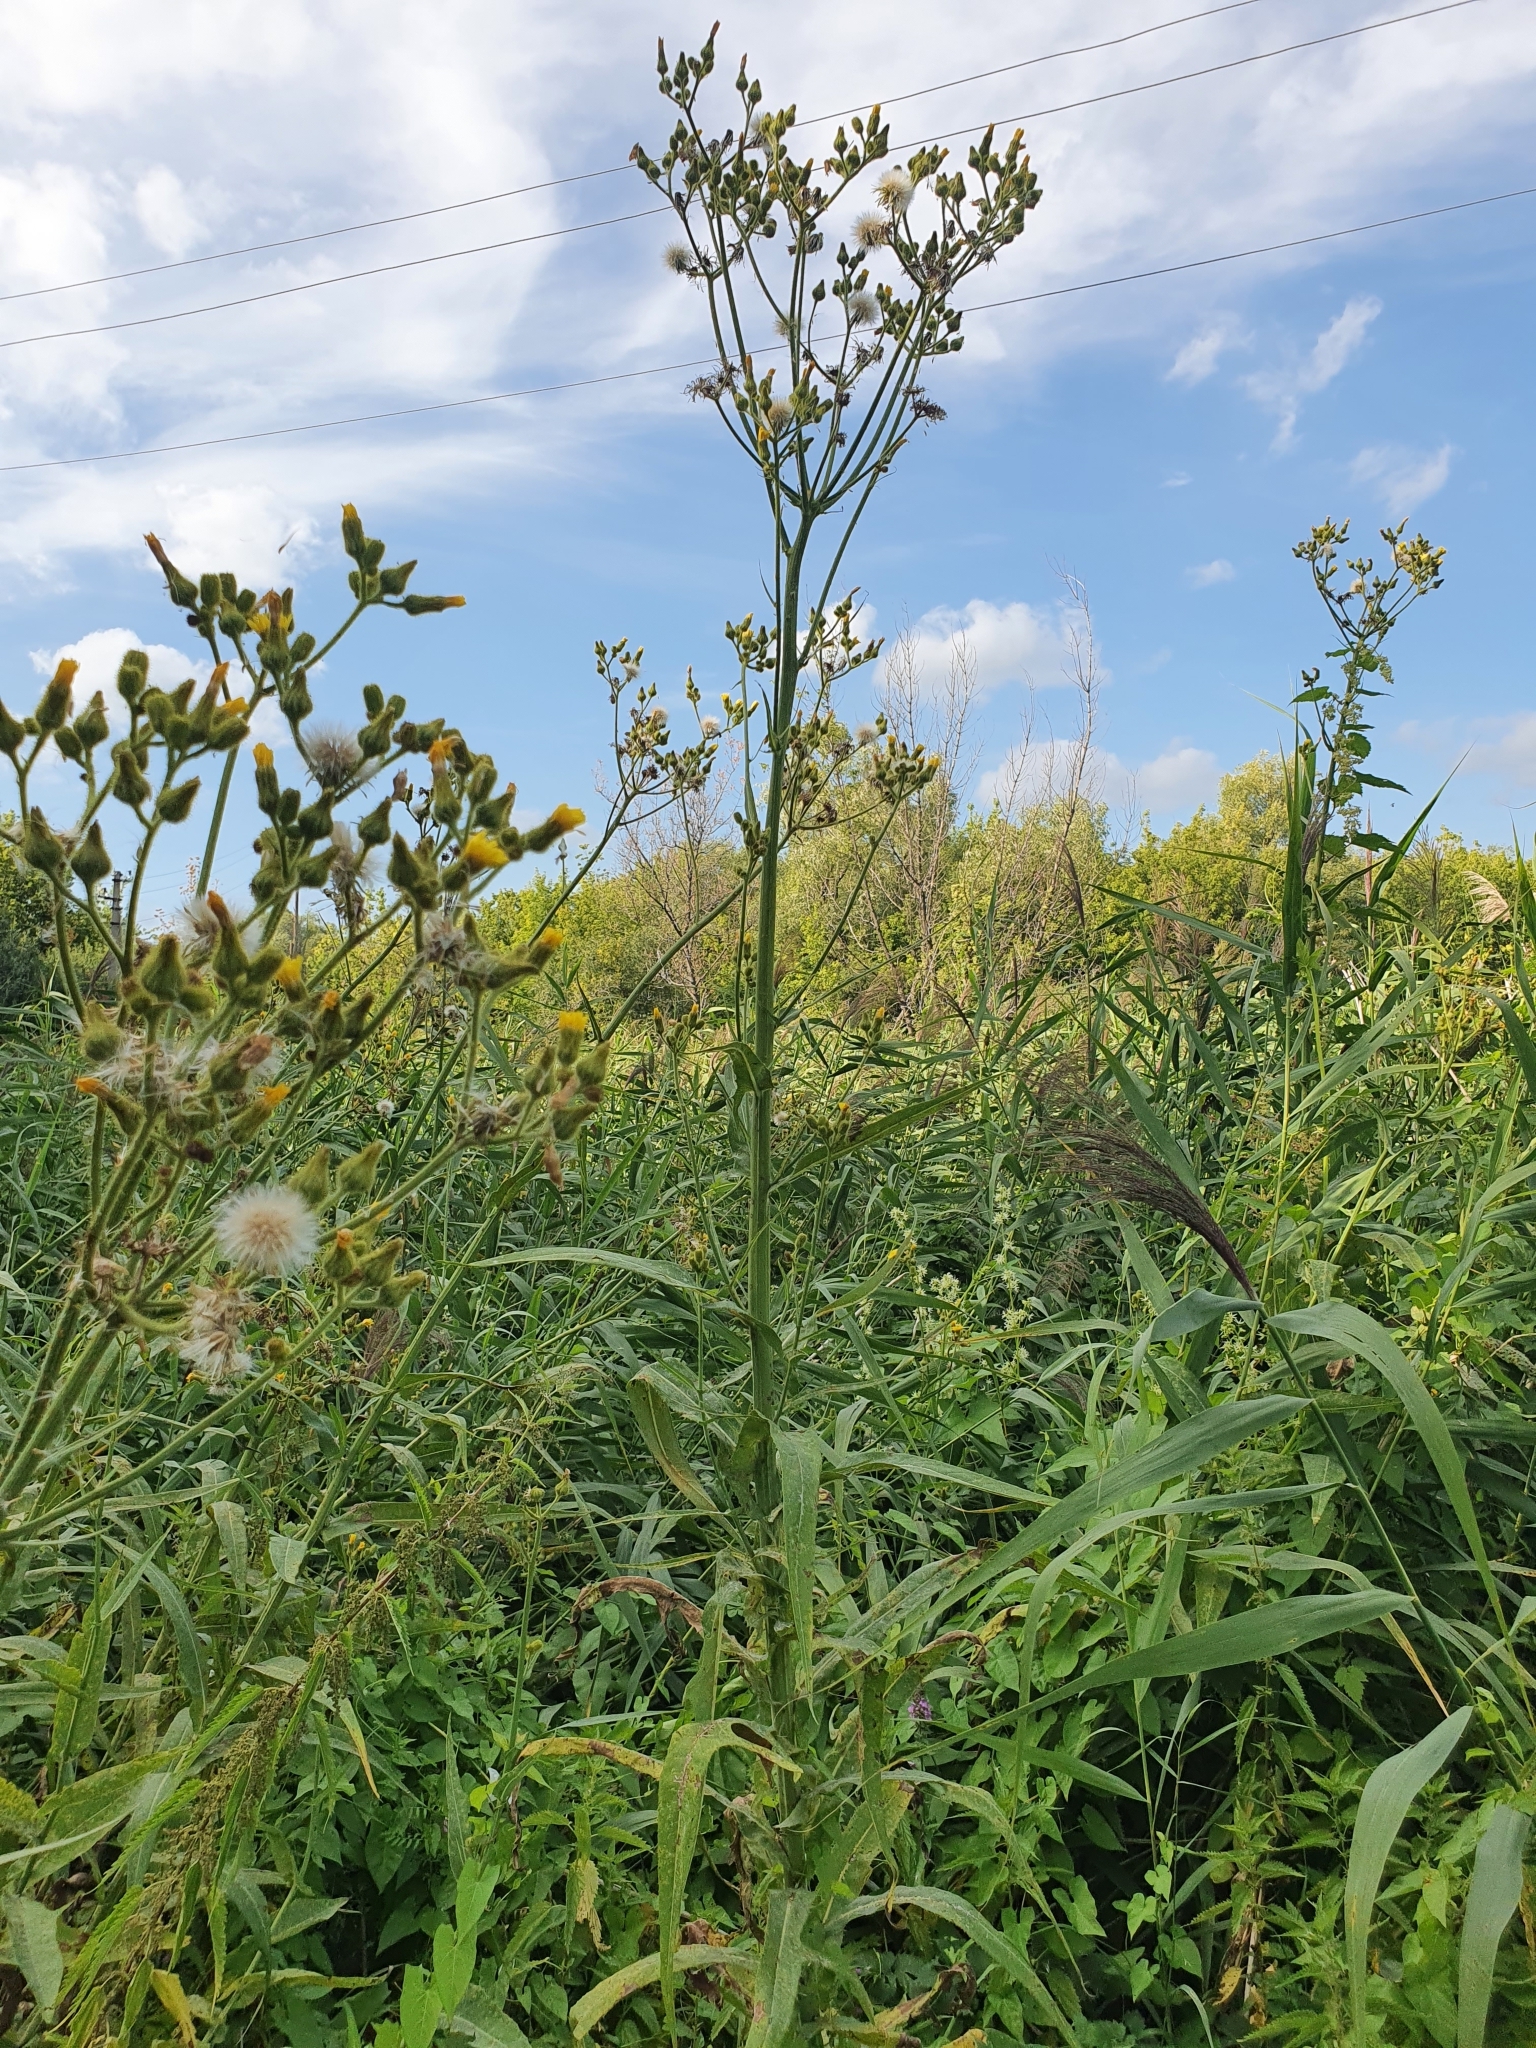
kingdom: Plantae
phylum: Tracheophyta
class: Magnoliopsida
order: Asterales
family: Asteraceae
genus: Sonchus
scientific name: Sonchus palustris
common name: Marsh sow-thistle
